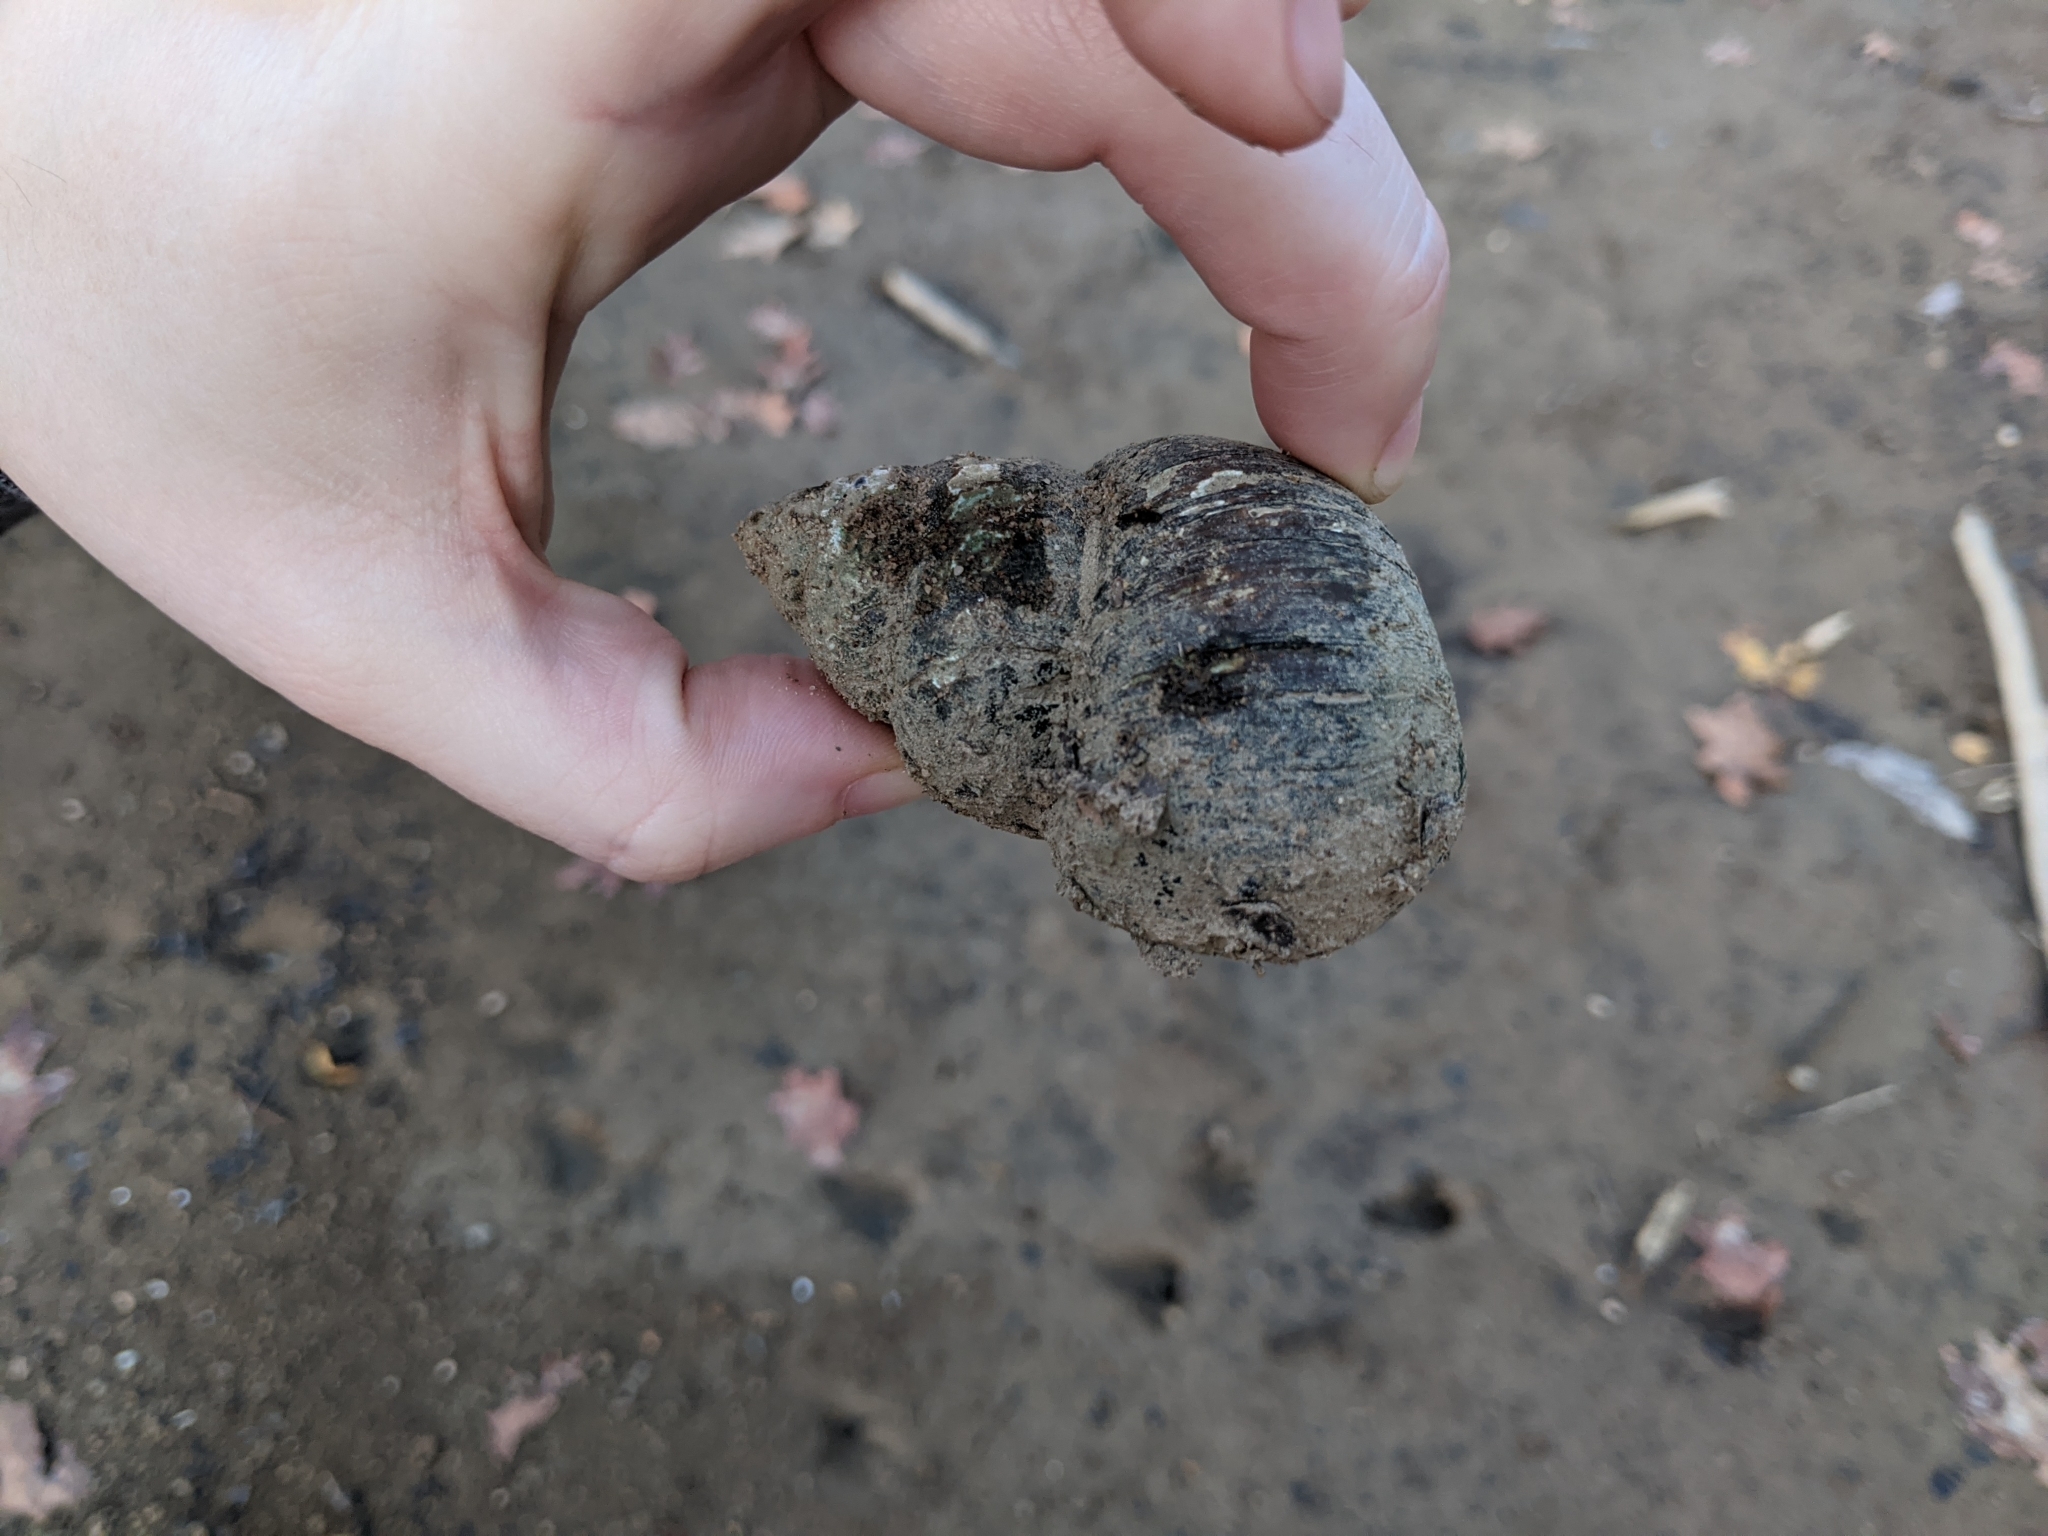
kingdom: Animalia
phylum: Mollusca
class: Gastropoda
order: Architaenioglossa
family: Viviparidae
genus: Cipangopaludina
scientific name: Cipangopaludina chinensis
